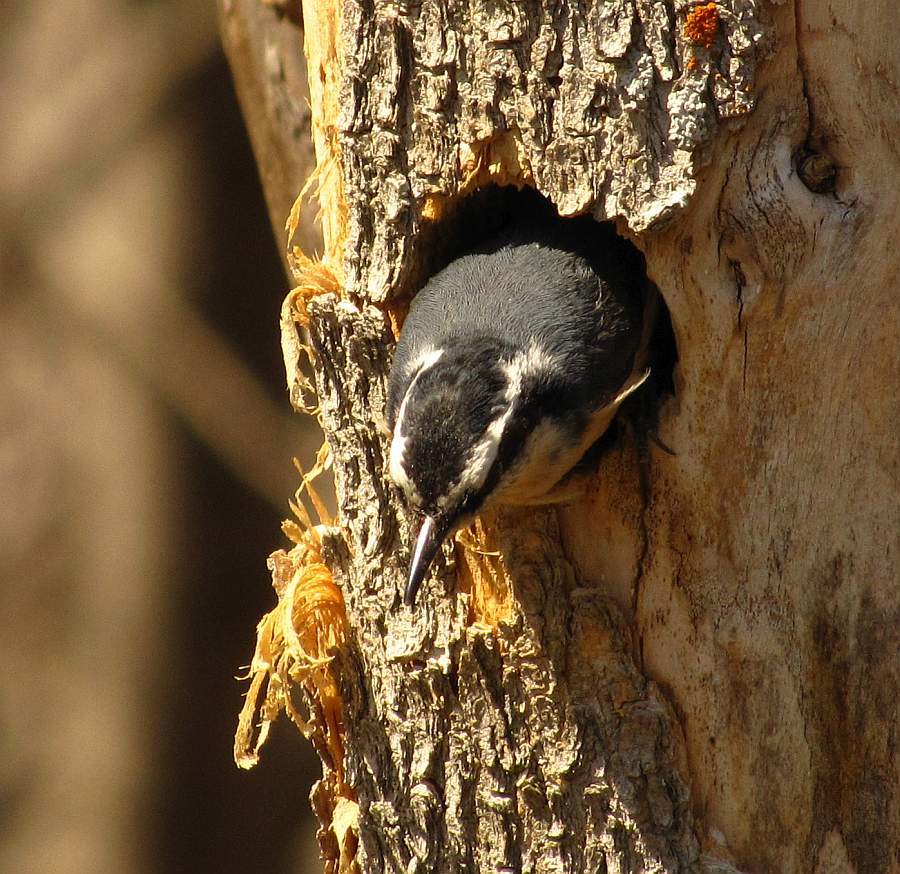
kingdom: Animalia
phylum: Chordata
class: Aves
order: Passeriformes
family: Sittidae
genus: Sitta
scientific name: Sitta canadensis
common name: Red-breasted nuthatch
